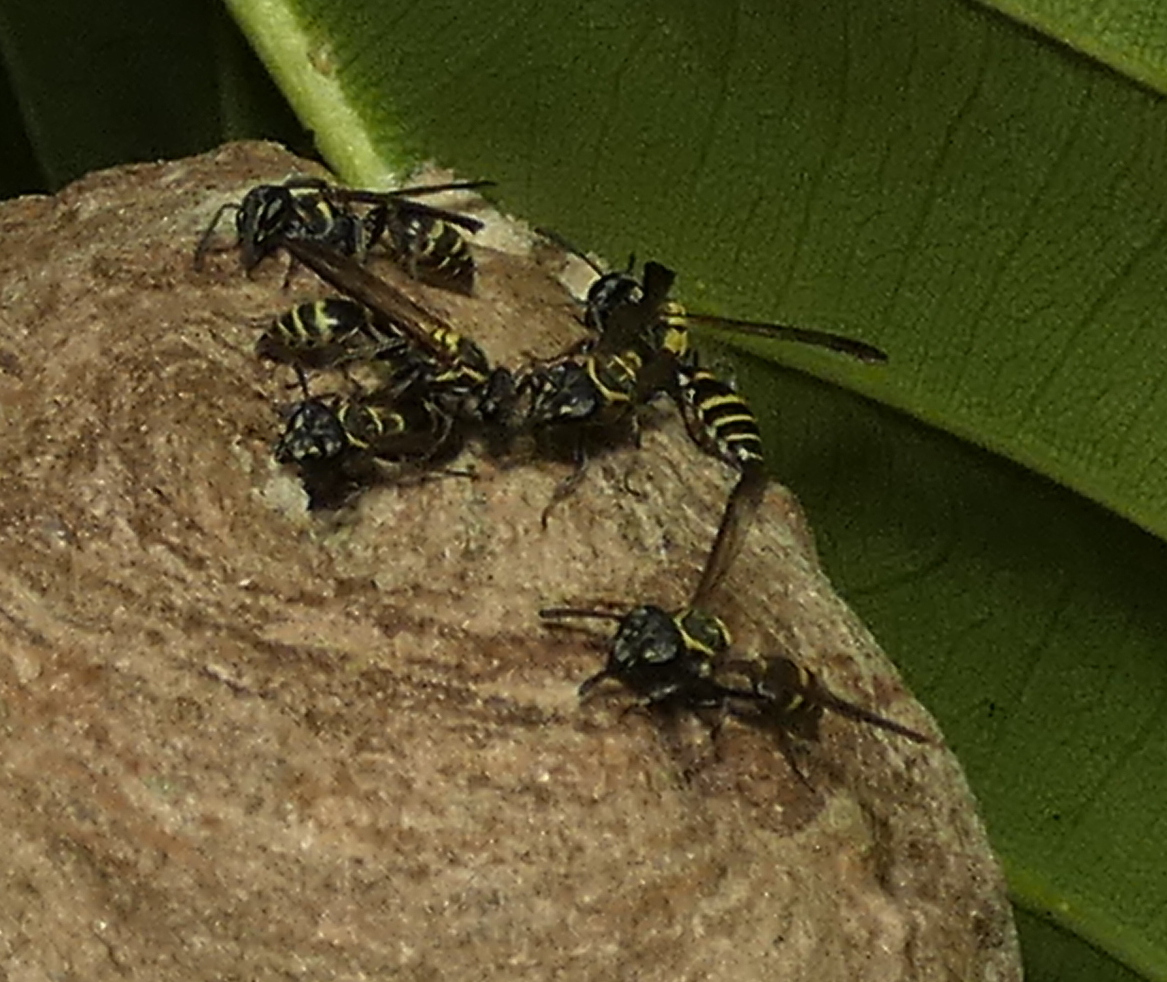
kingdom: Animalia
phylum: Arthropoda
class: Insecta
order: Hymenoptera
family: Eumenidae
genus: Polybia
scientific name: Polybia occidentalis
